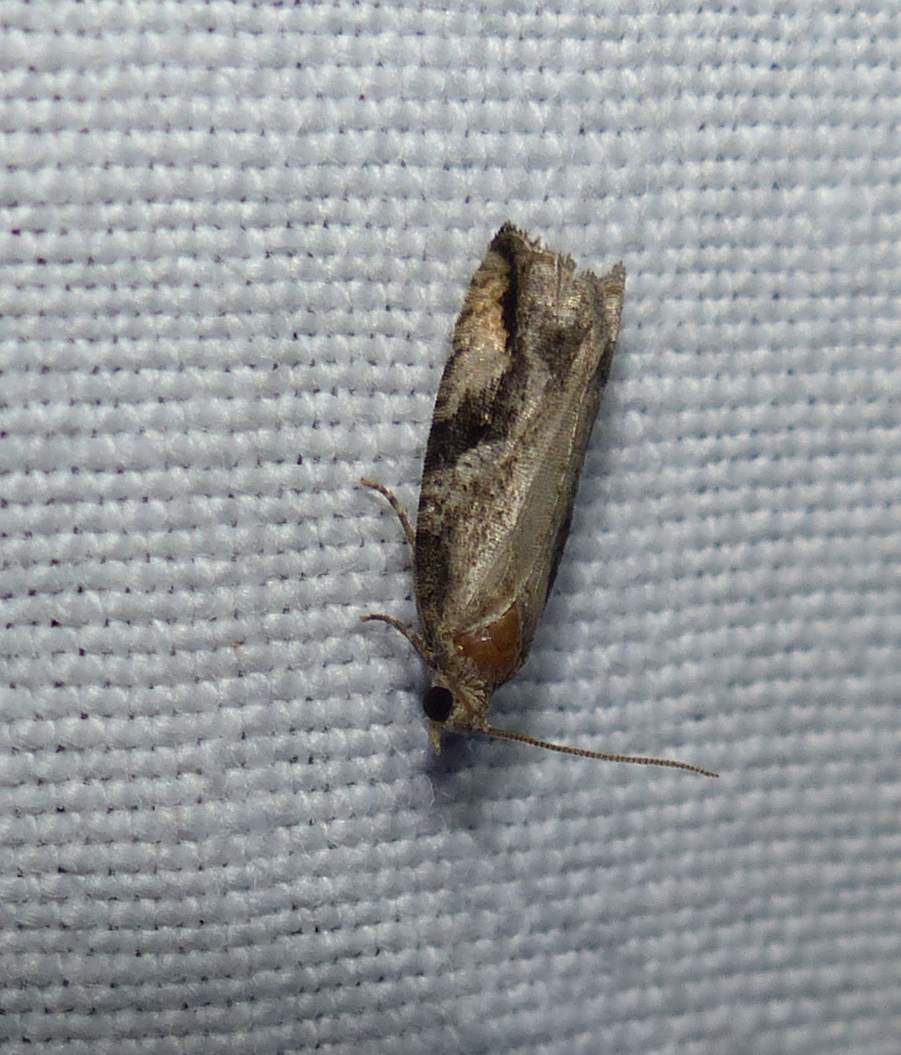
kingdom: Animalia
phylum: Arthropoda
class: Insecta
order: Lepidoptera
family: Tortricidae
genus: Proteoteras
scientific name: Proteoteras crescentana
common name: Black-crescent proteoteras moth
